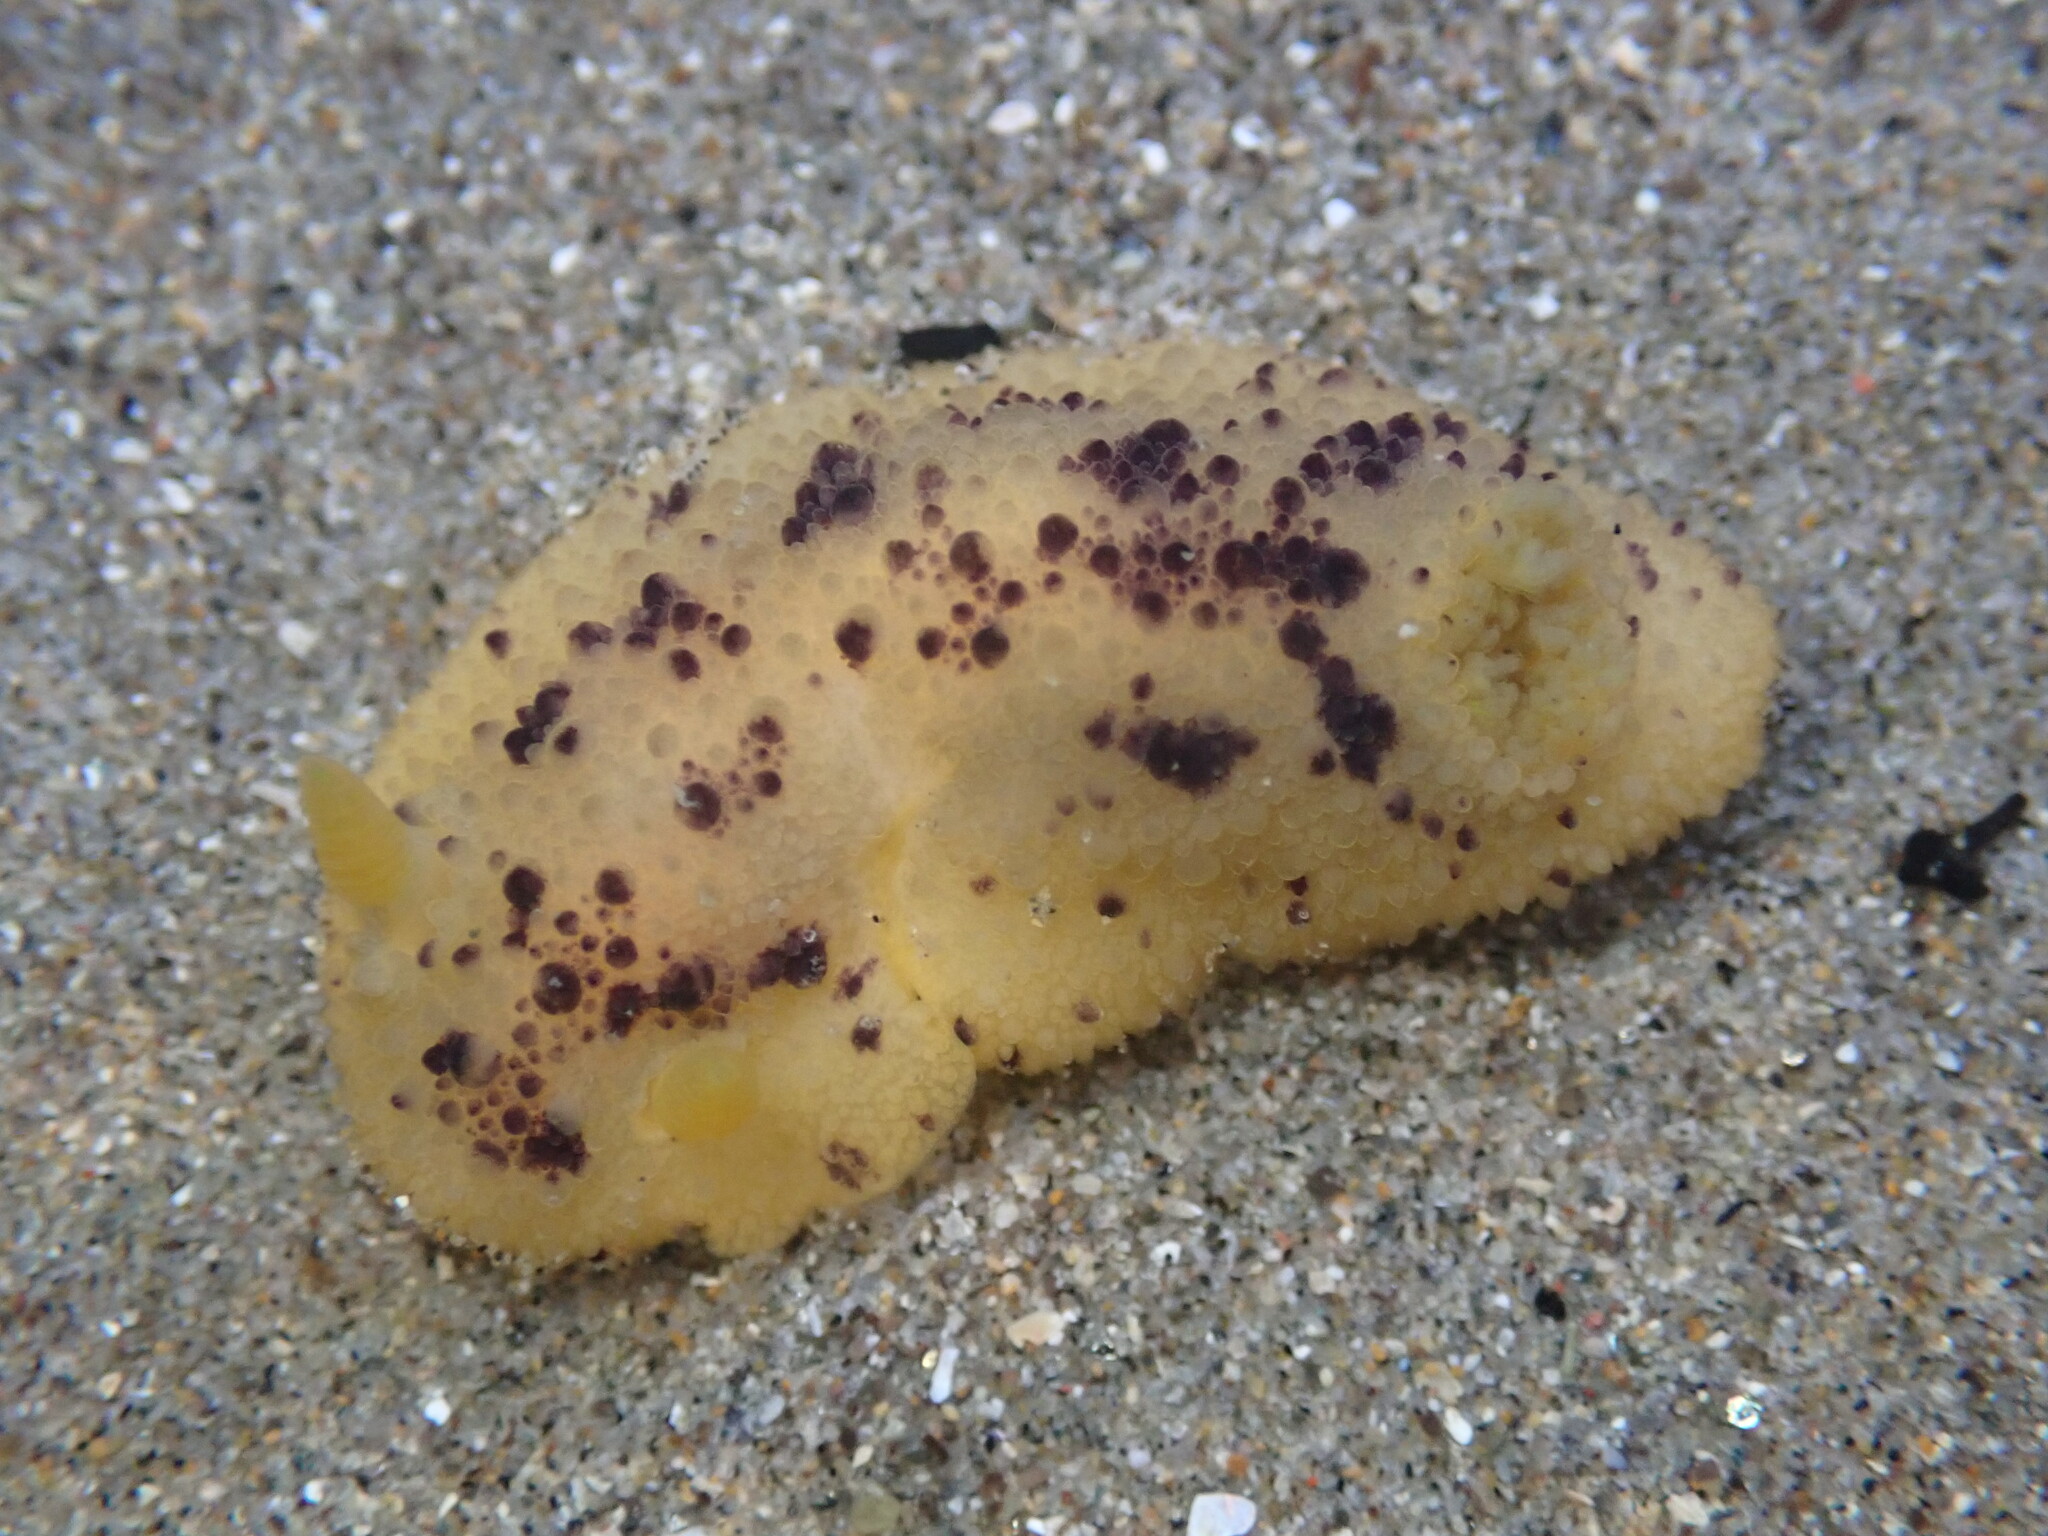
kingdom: Animalia
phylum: Mollusca
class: Gastropoda
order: Nudibranchia
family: Dorididae
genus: Doris
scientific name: Doris montereyensis
